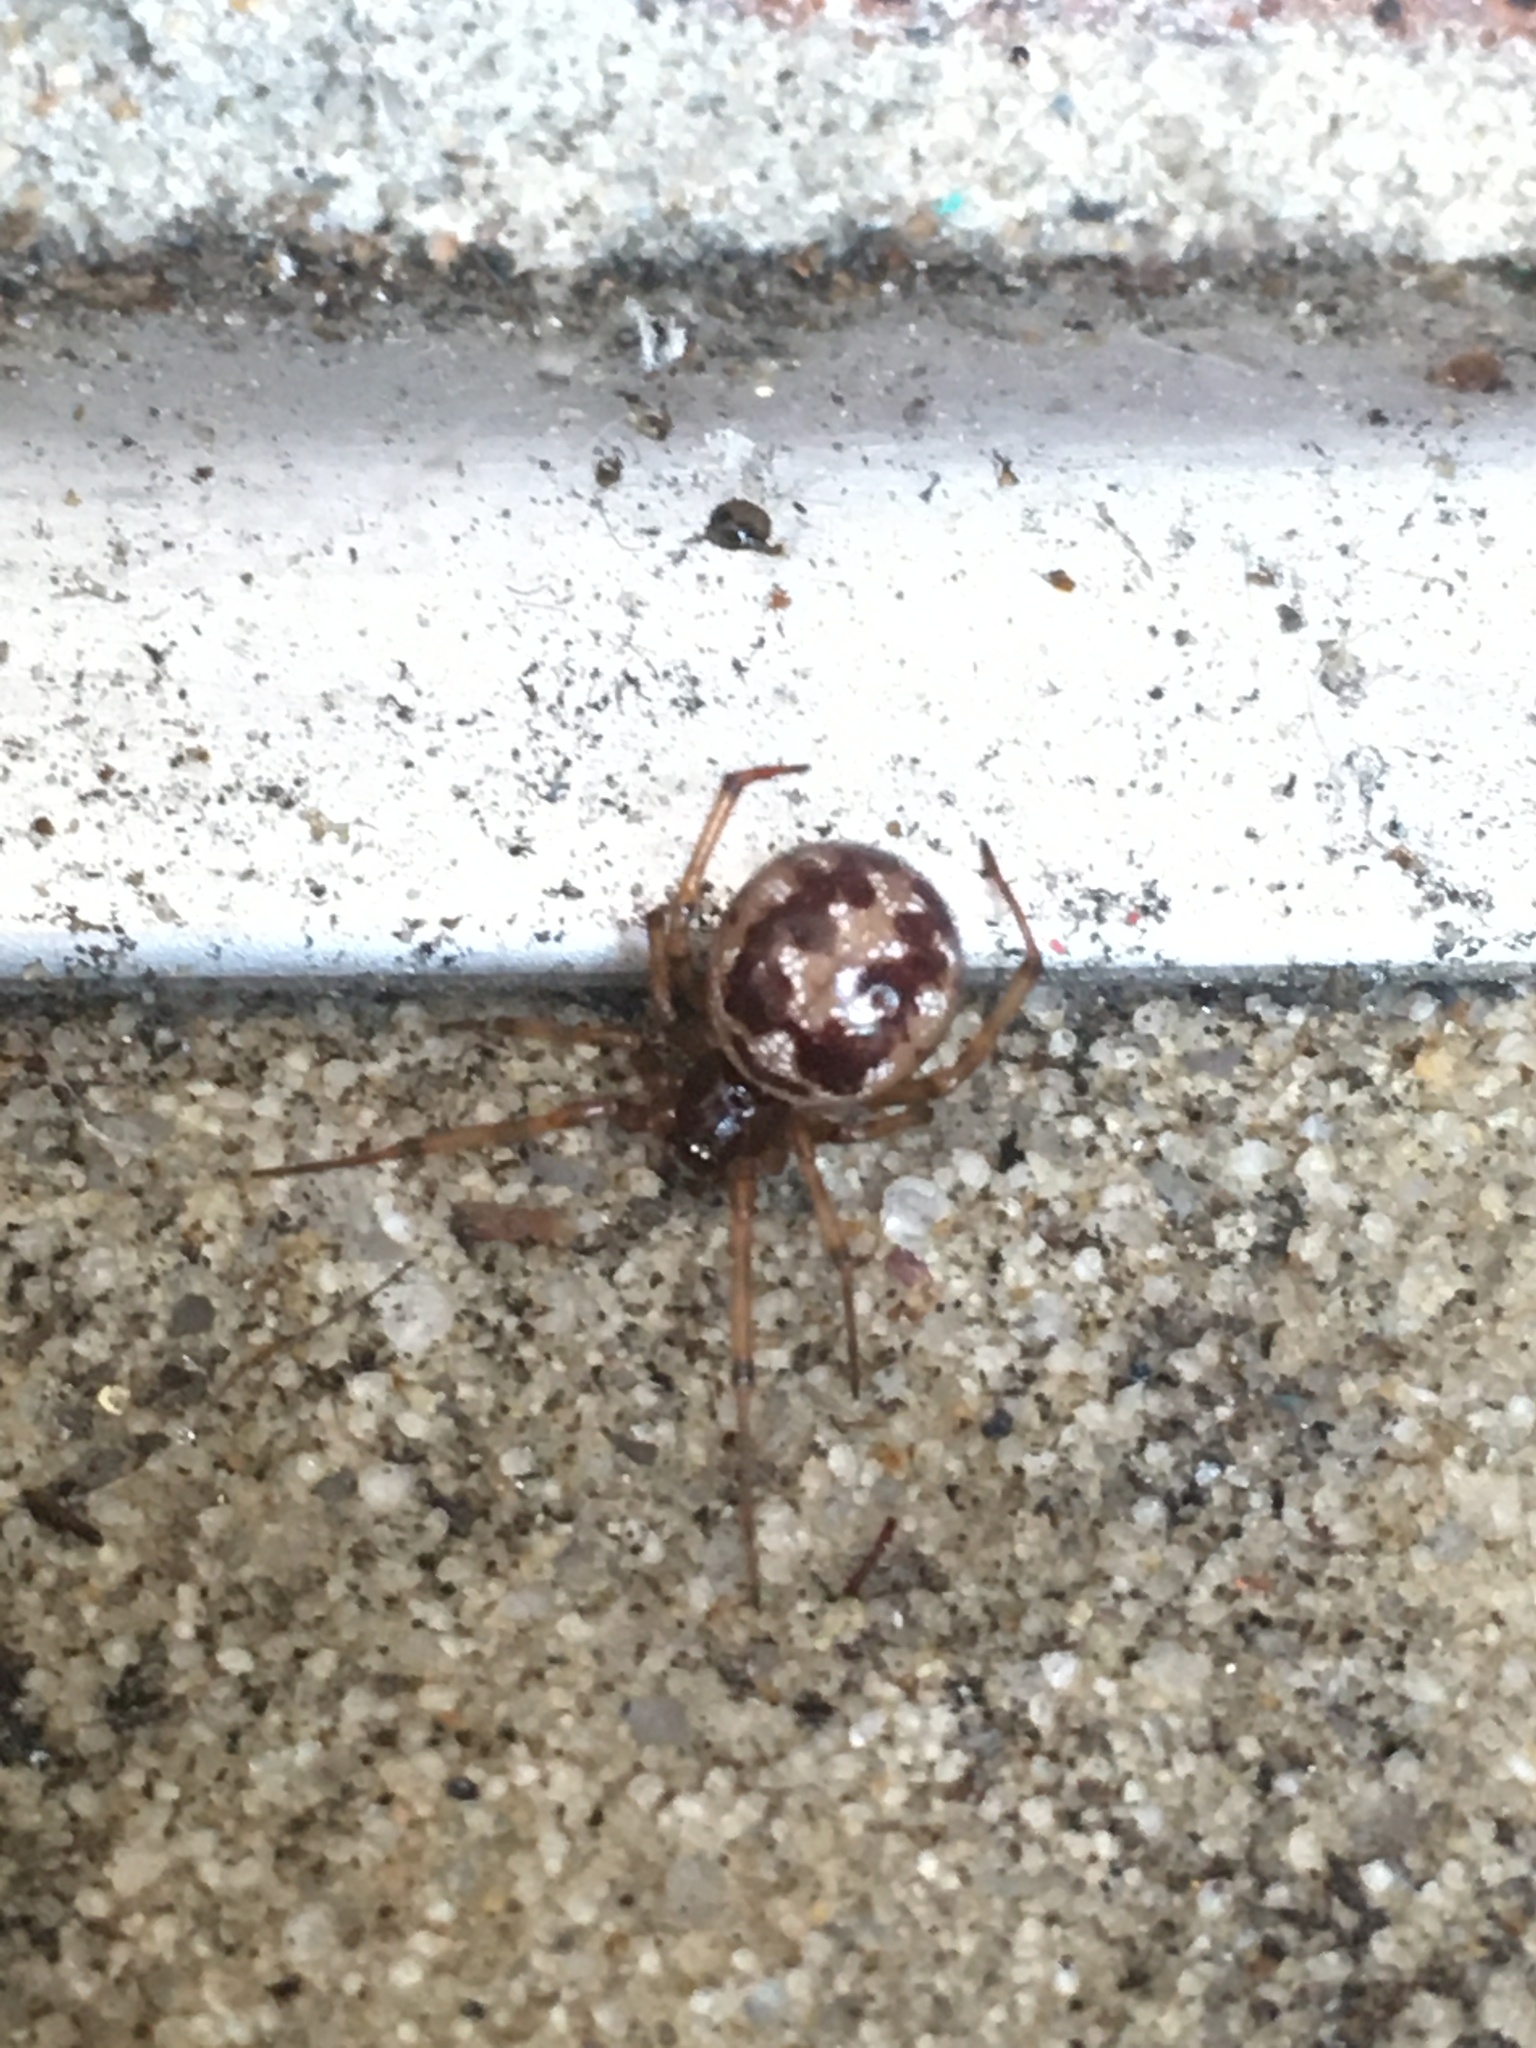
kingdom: Animalia
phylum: Arthropoda
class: Arachnida
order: Araneae
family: Theridiidae
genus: Steatoda
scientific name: Steatoda triangulosa
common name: Triangulate bud spider
